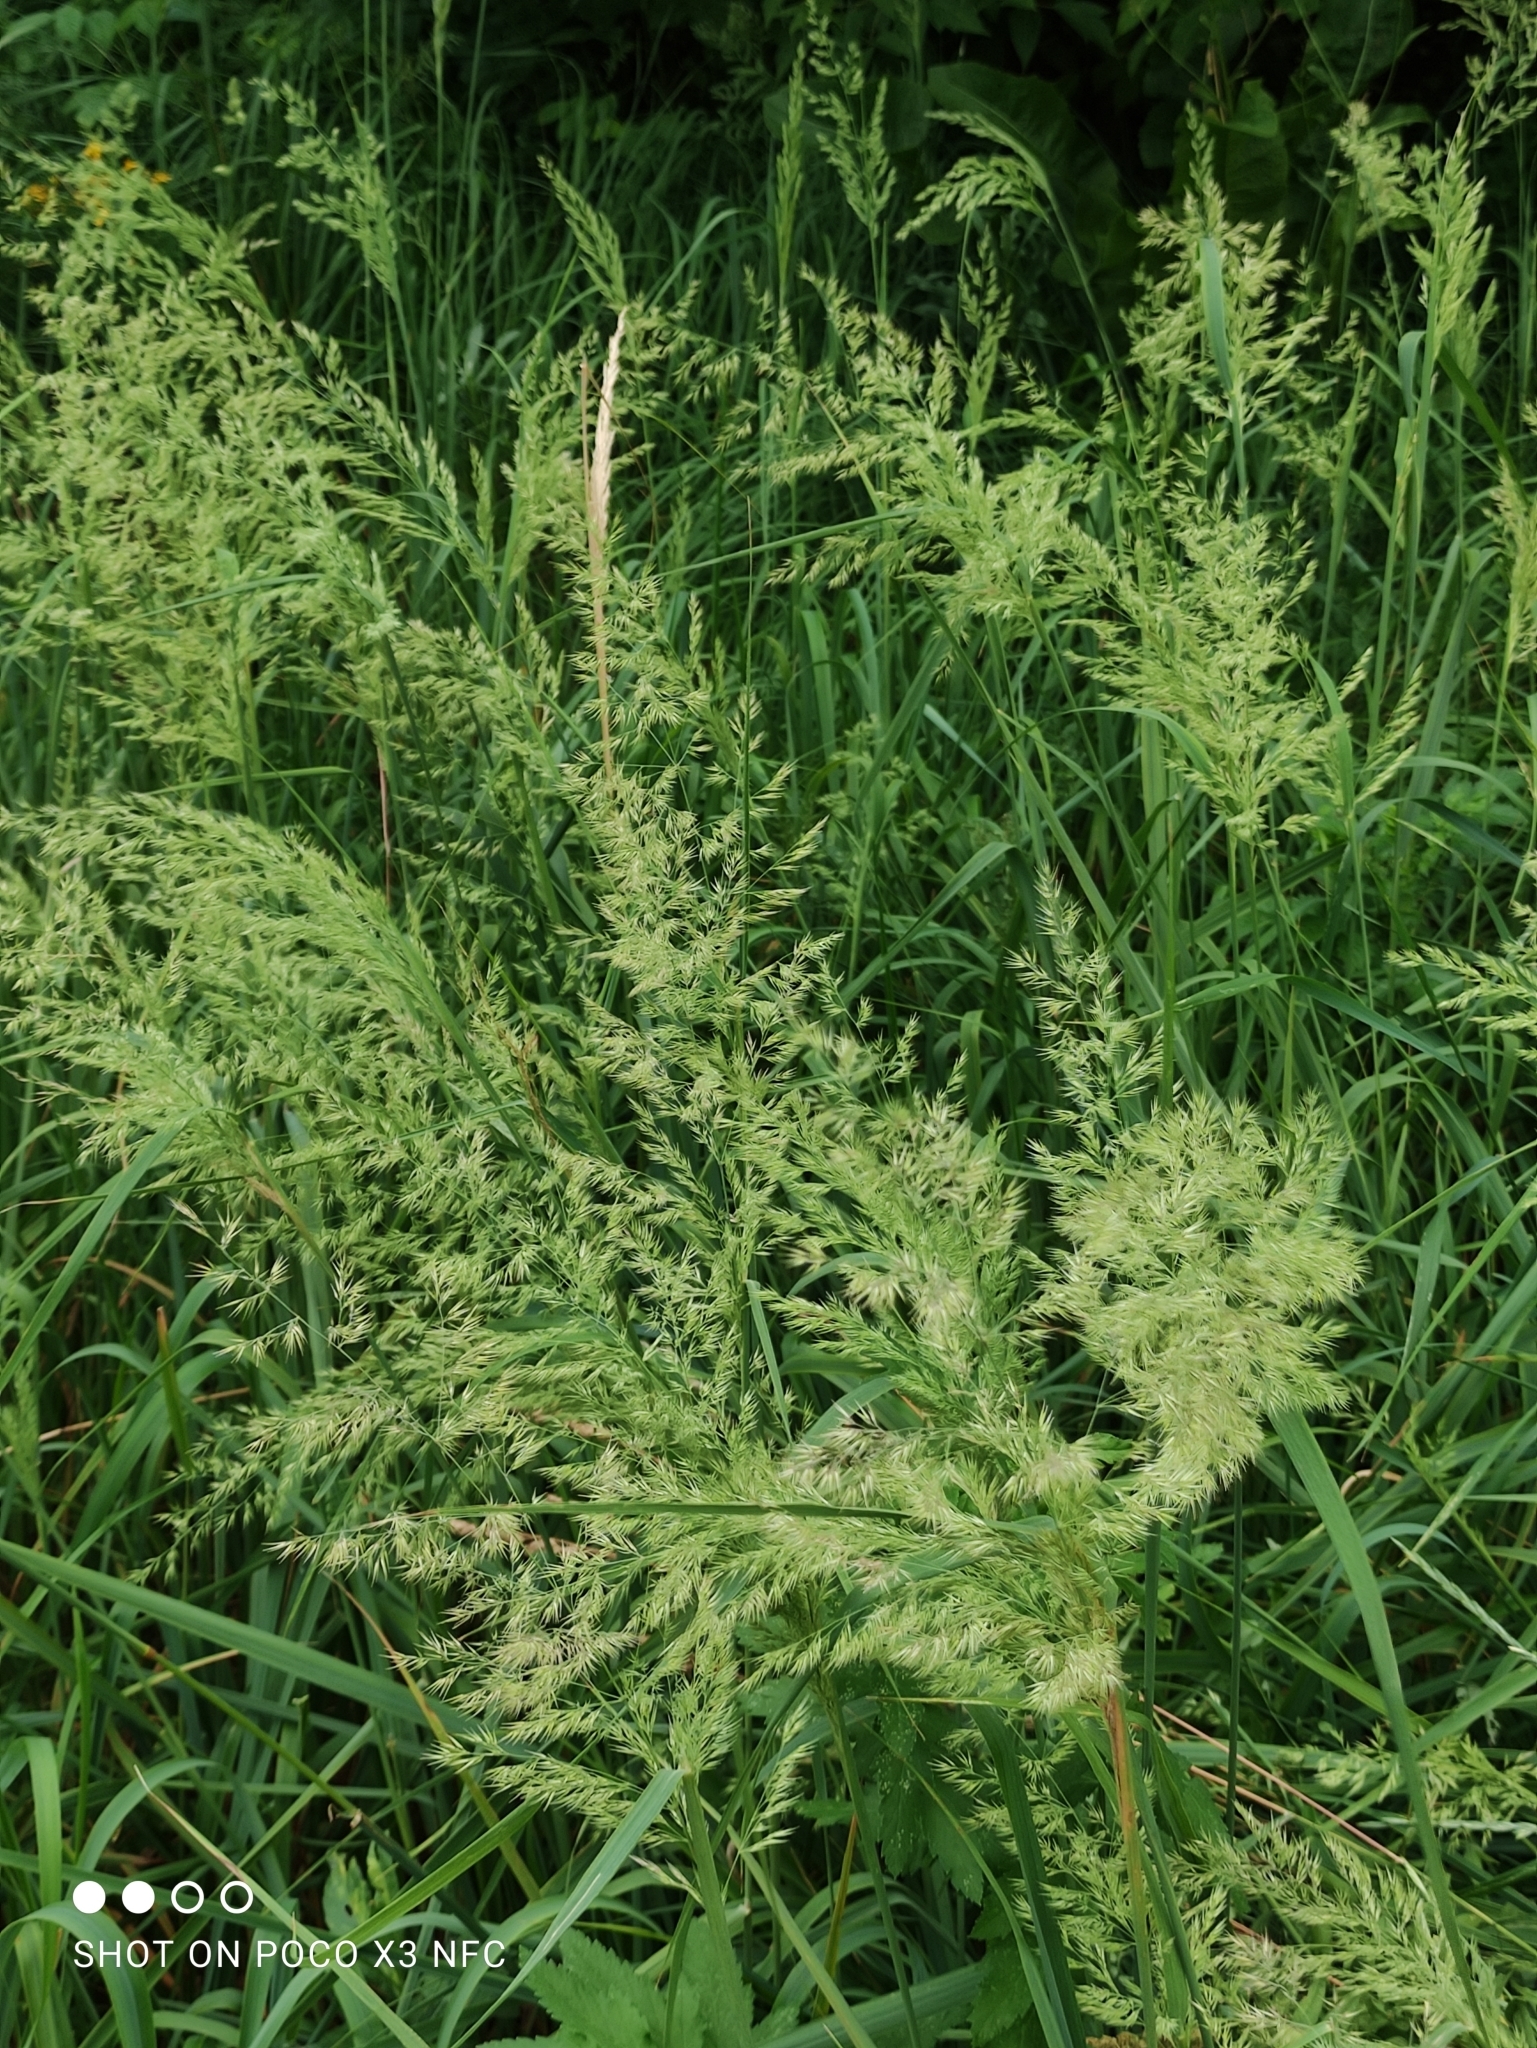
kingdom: Plantae
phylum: Tracheophyta
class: Liliopsida
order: Poales
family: Poaceae
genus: Calamagrostis
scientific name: Calamagrostis epigejos
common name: Wood small-reed
